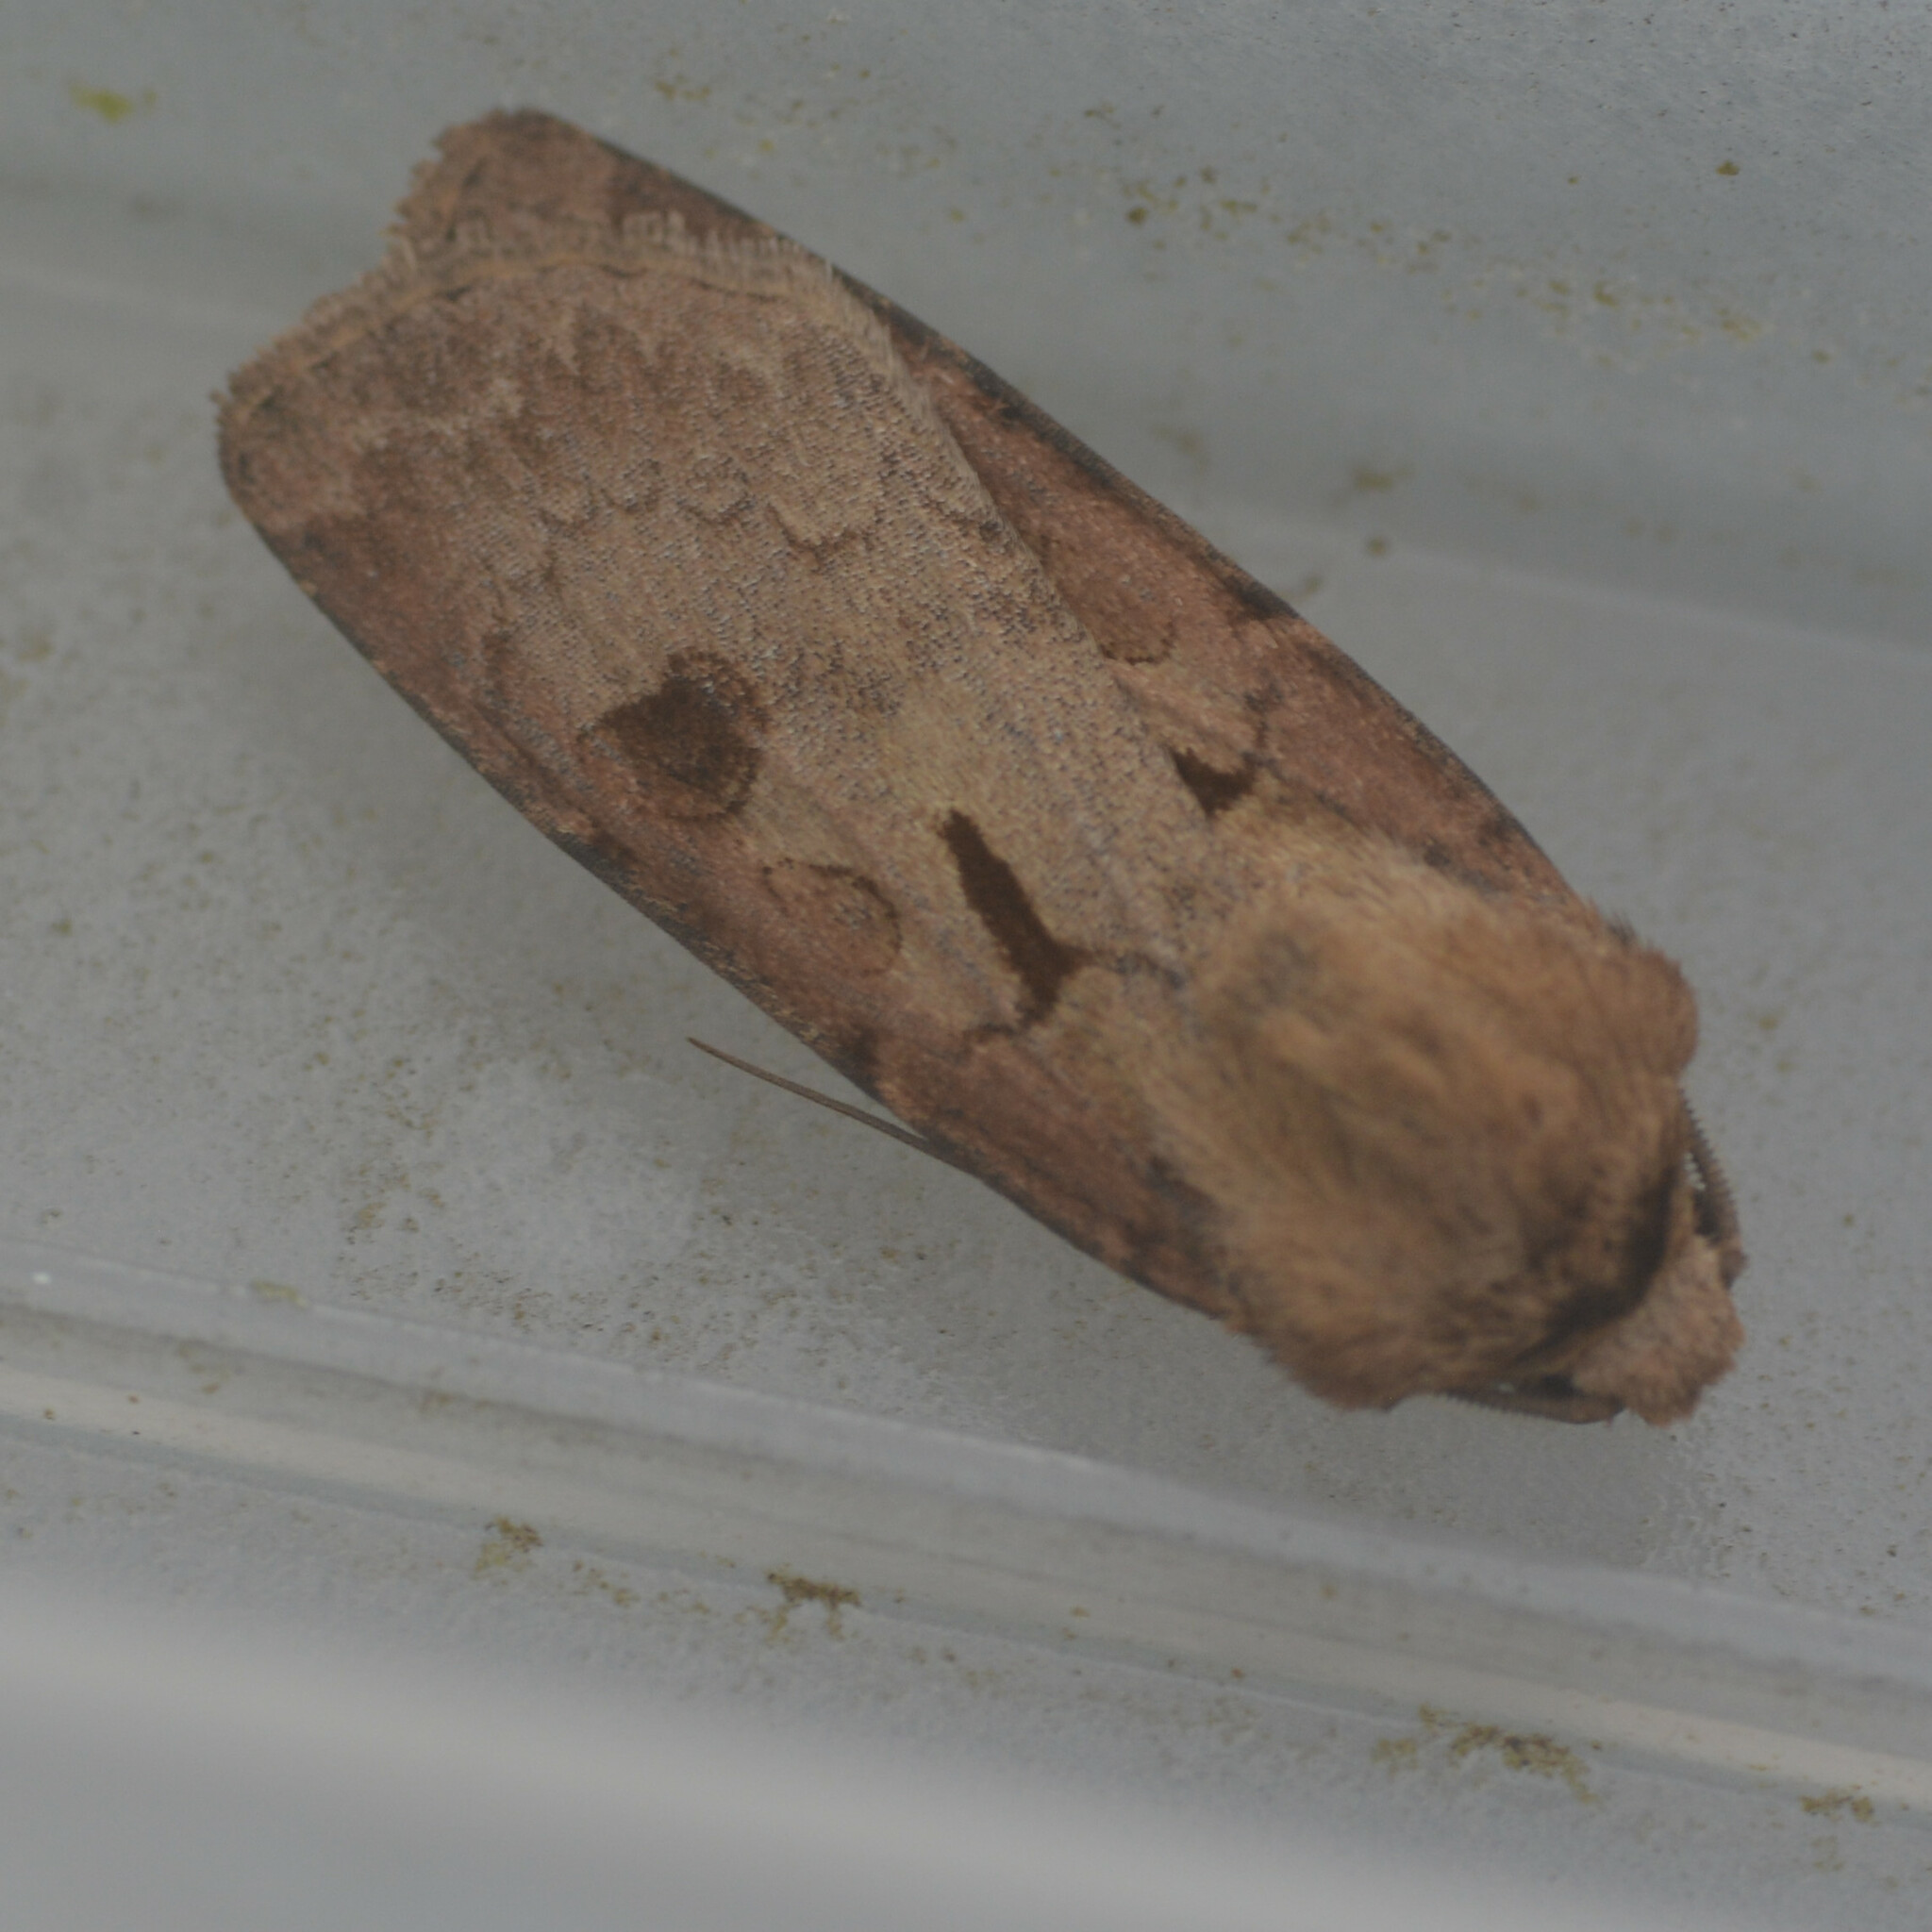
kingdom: Animalia
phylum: Arthropoda
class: Insecta
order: Lepidoptera
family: Noctuidae
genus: Agrotis
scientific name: Agrotis exclamationis
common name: Heart and dart
